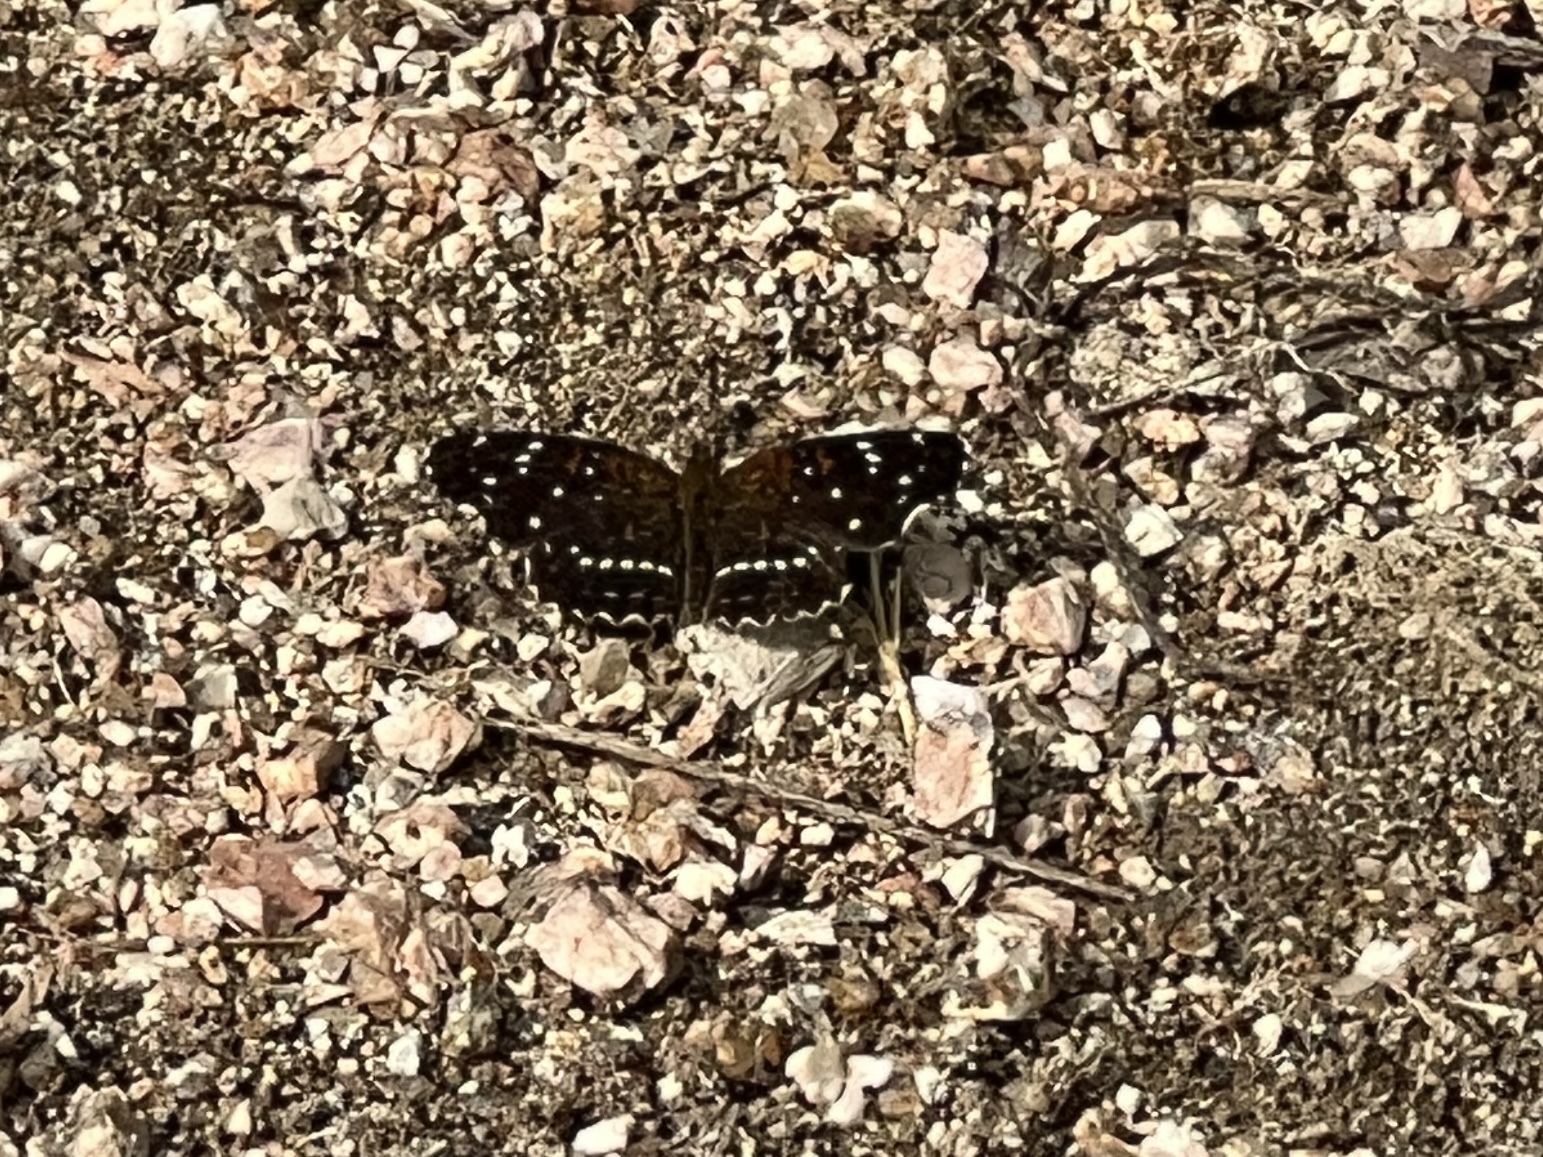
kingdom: Animalia
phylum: Arthropoda
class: Insecta
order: Lepidoptera
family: Nymphalidae
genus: Anthanassa
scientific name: Anthanassa texana
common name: Texan crescent
